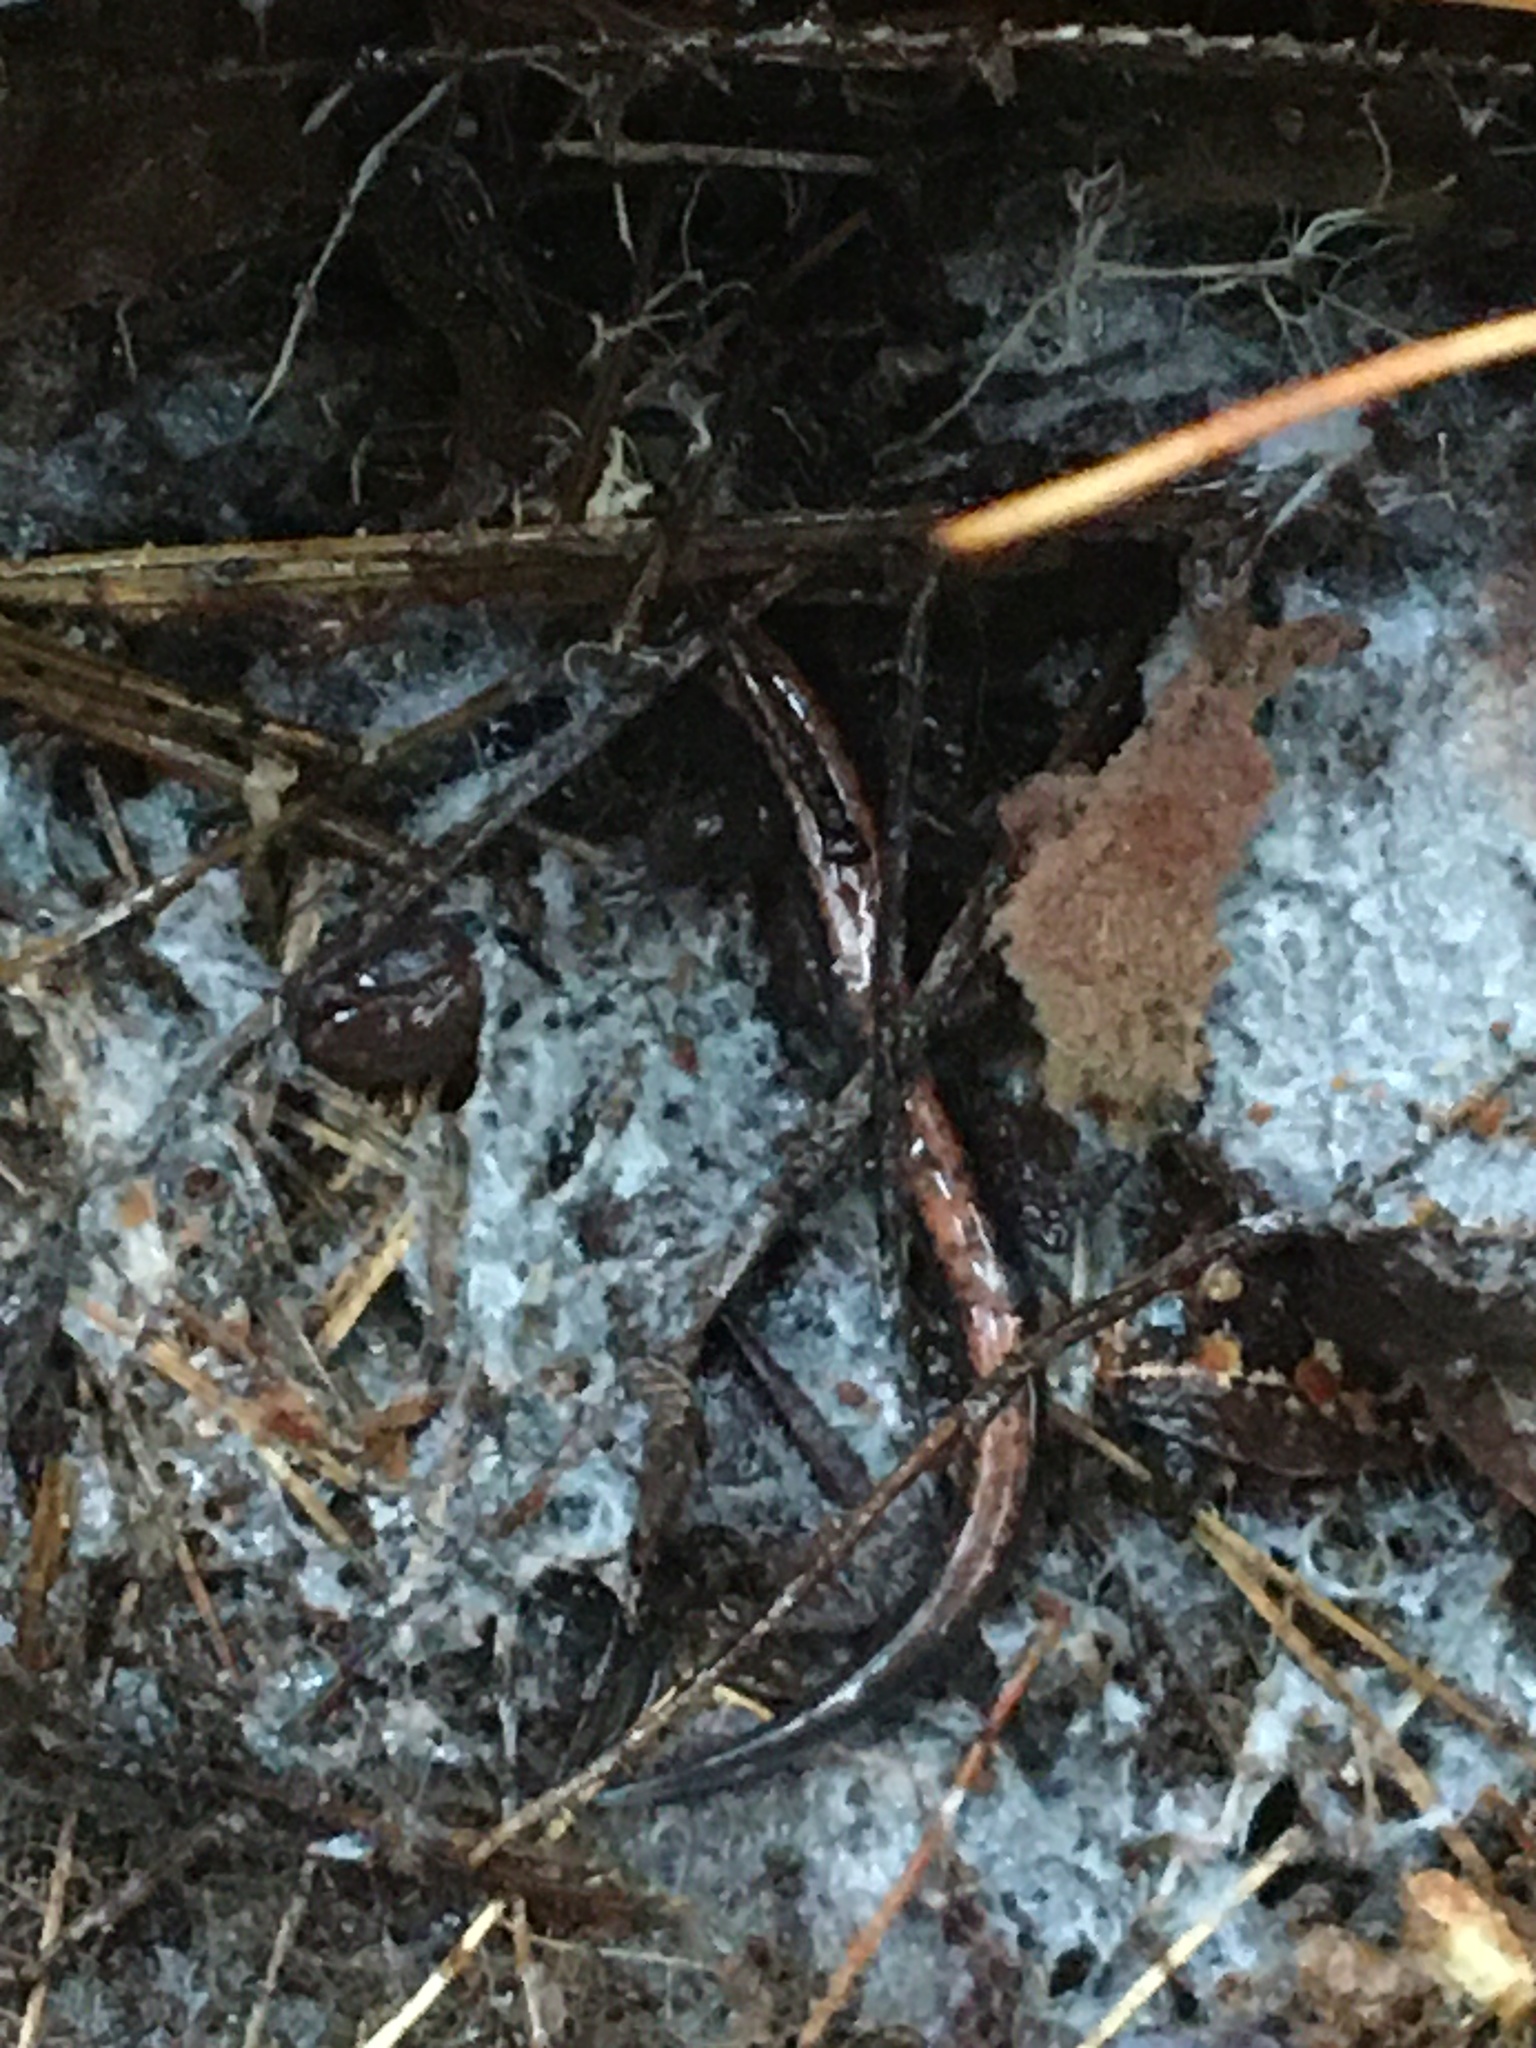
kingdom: Animalia
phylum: Chordata
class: Amphibia
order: Caudata
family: Plethodontidae
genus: Plethodon
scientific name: Plethodon cinereus
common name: Redback salamander
